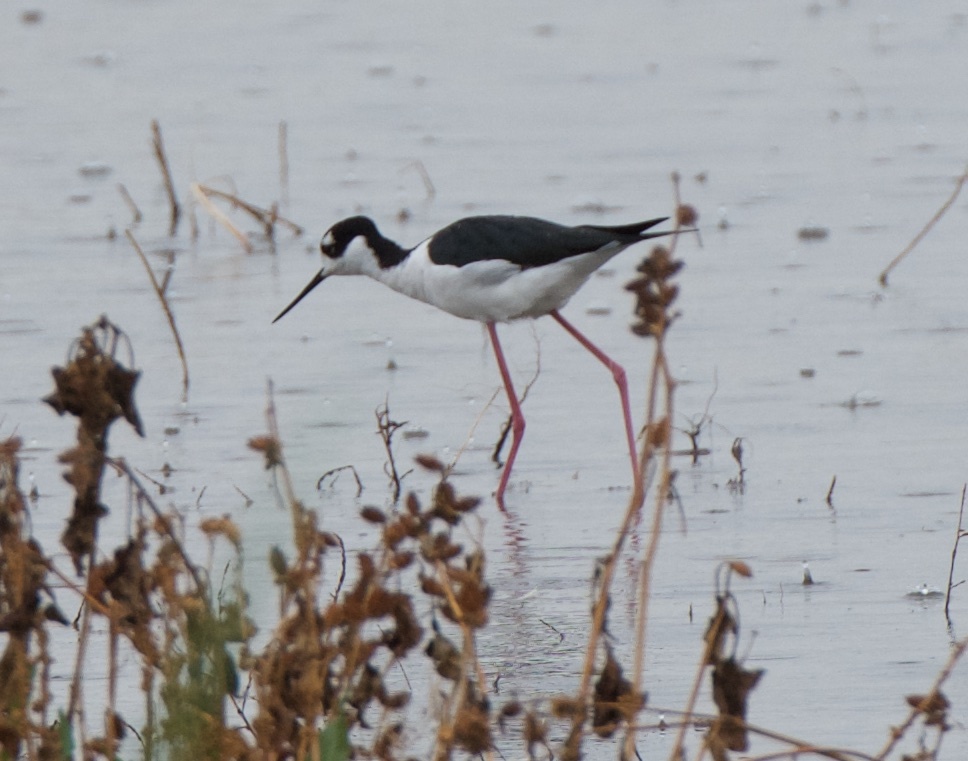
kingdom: Animalia
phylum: Chordata
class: Aves
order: Charadriiformes
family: Recurvirostridae
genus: Himantopus
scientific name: Himantopus mexicanus
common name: Black-necked stilt
